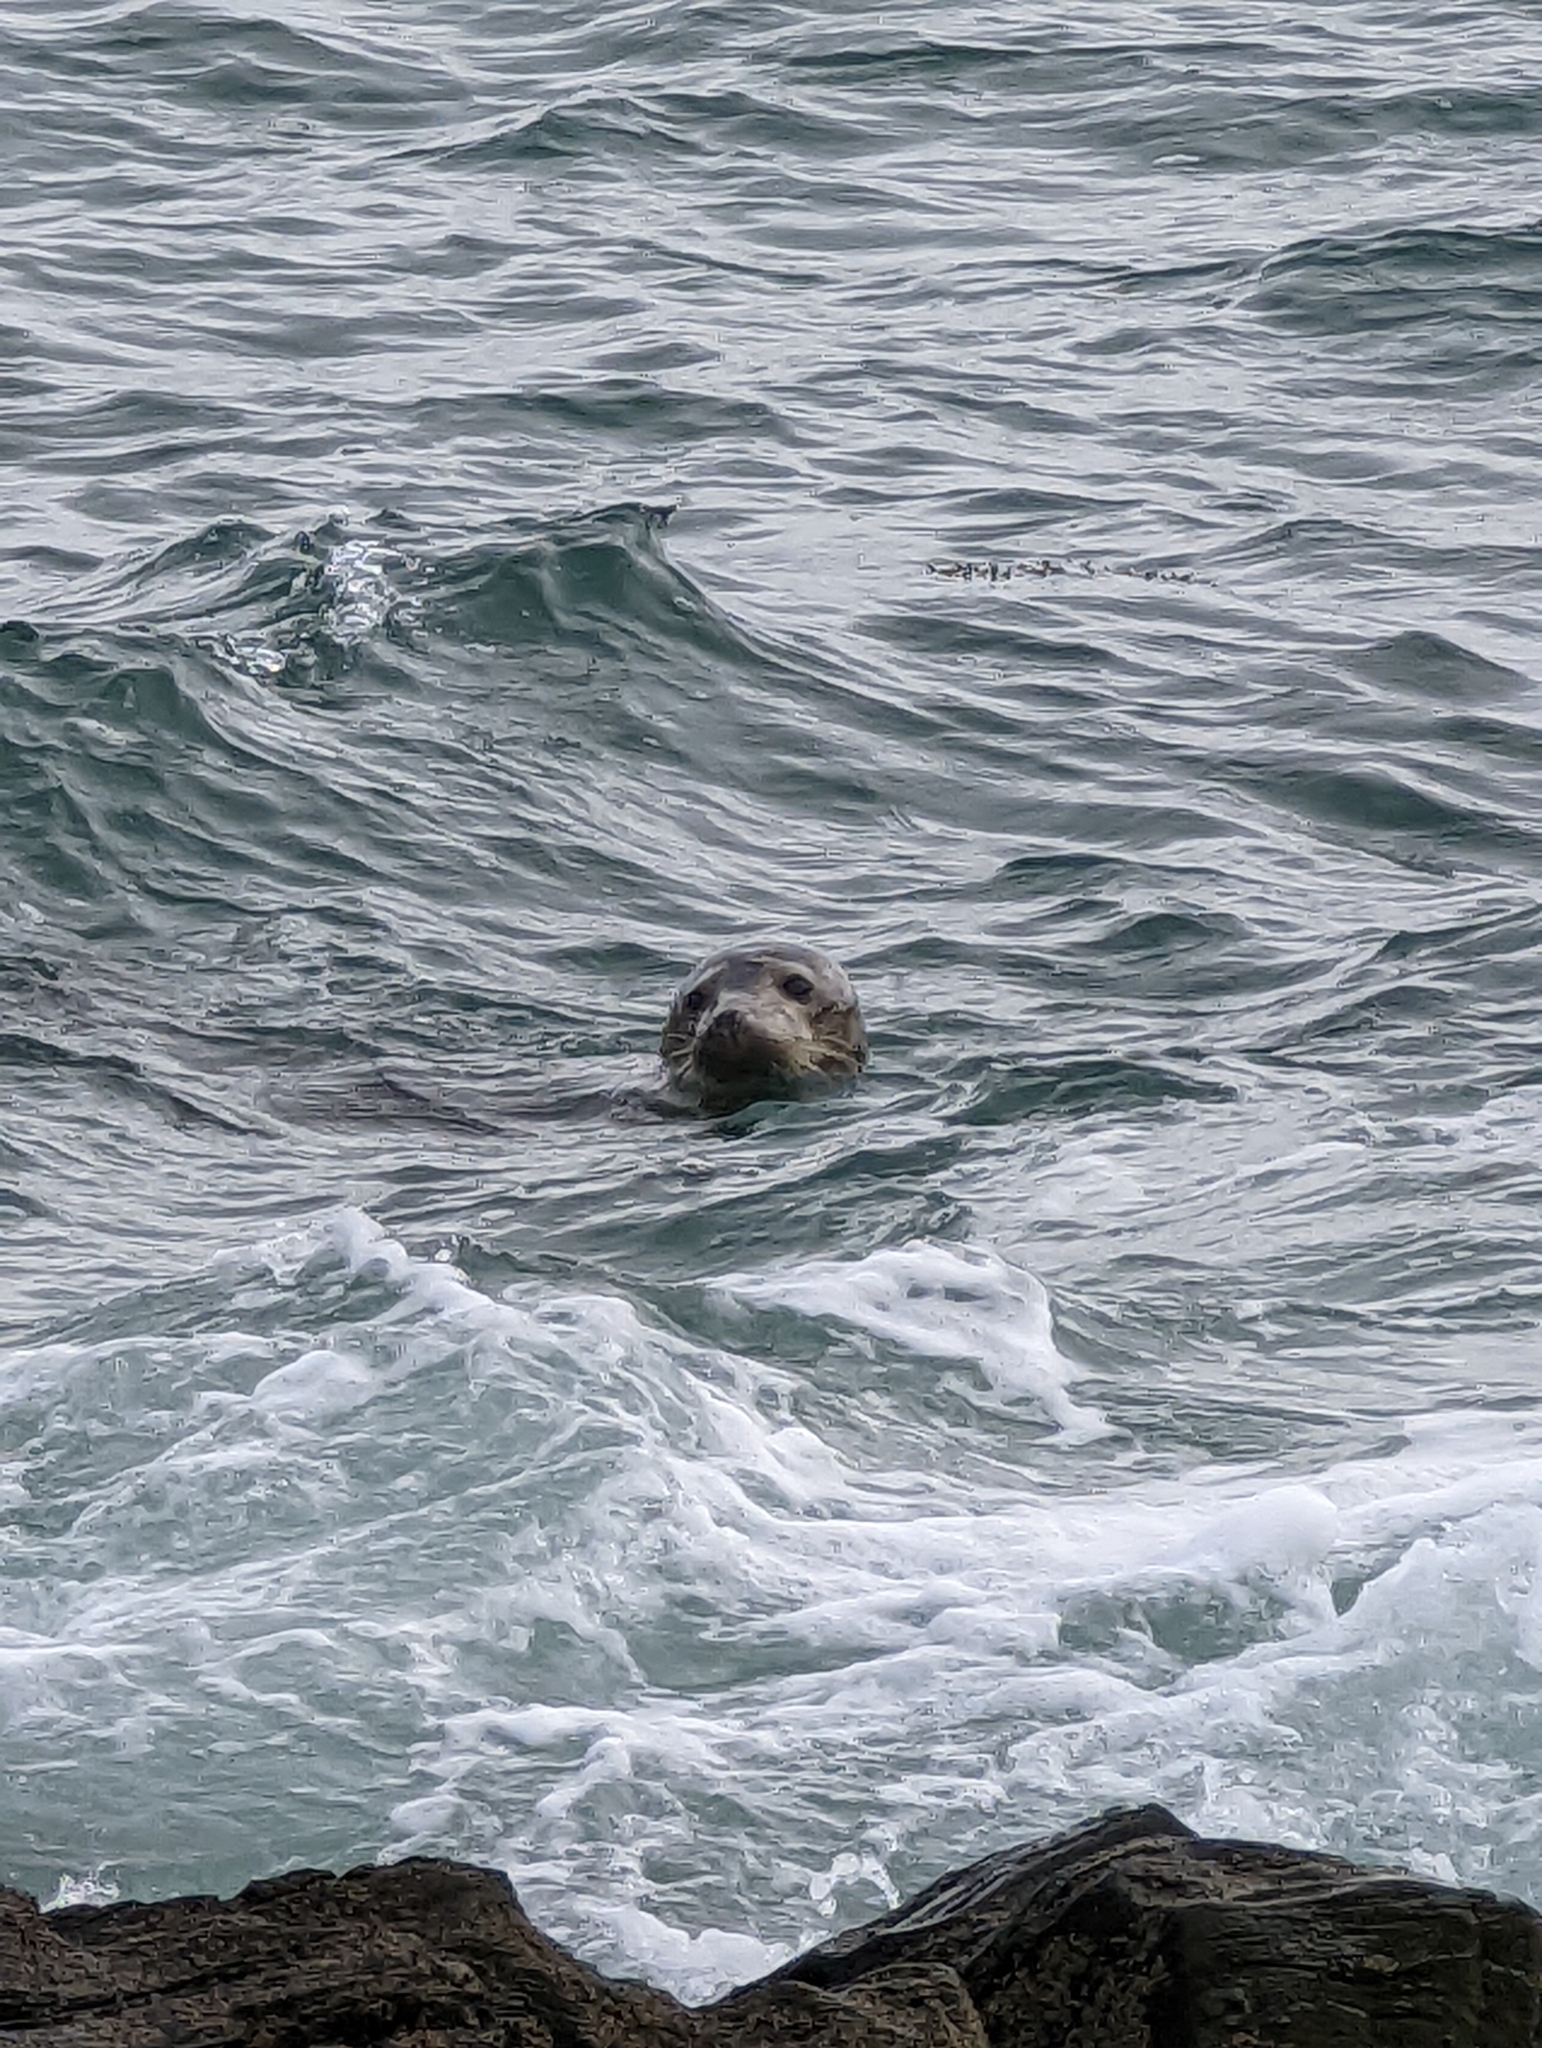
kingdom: Animalia
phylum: Chordata
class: Mammalia
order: Carnivora
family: Phocidae
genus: Halichoerus
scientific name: Halichoerus grypus
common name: Grey seal
